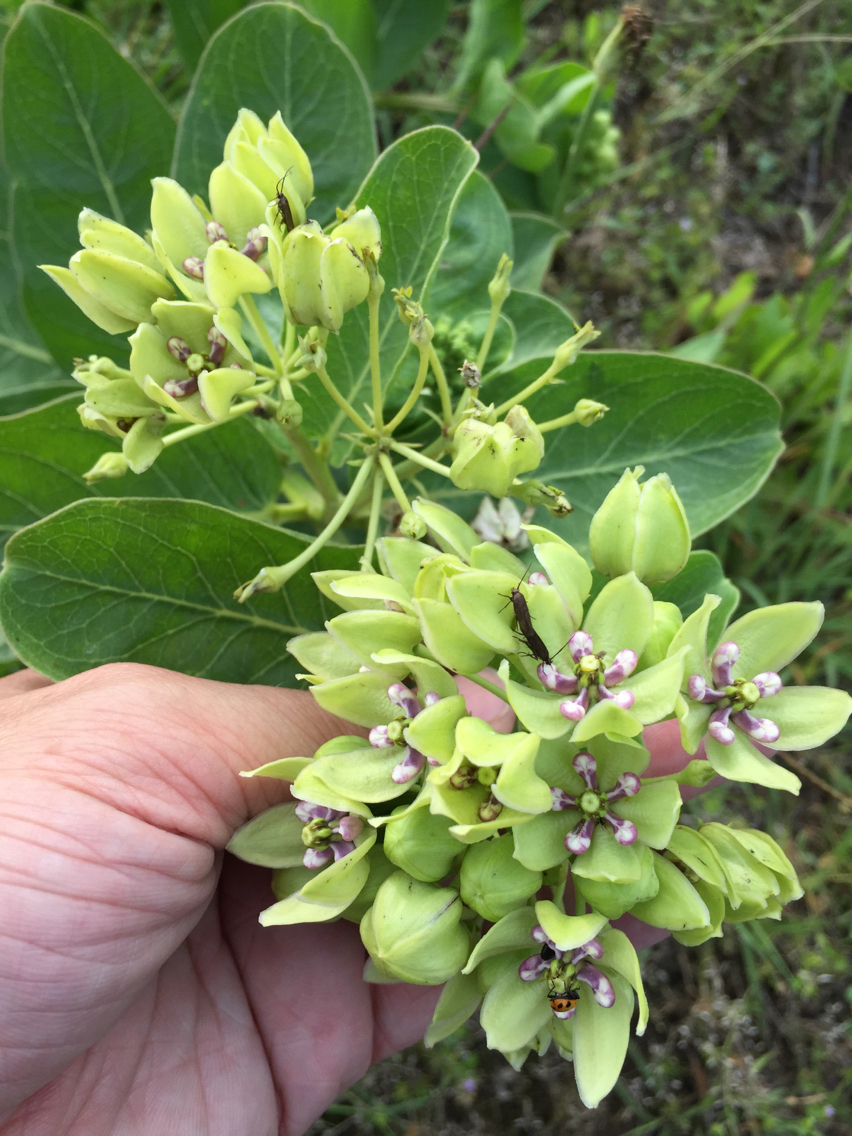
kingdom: Plantae
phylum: Tracheophyta
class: Magnoliopsida
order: Gentianales
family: Apocynaceae
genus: Asclepias
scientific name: Asclepias viridis
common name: Antelope-horns
